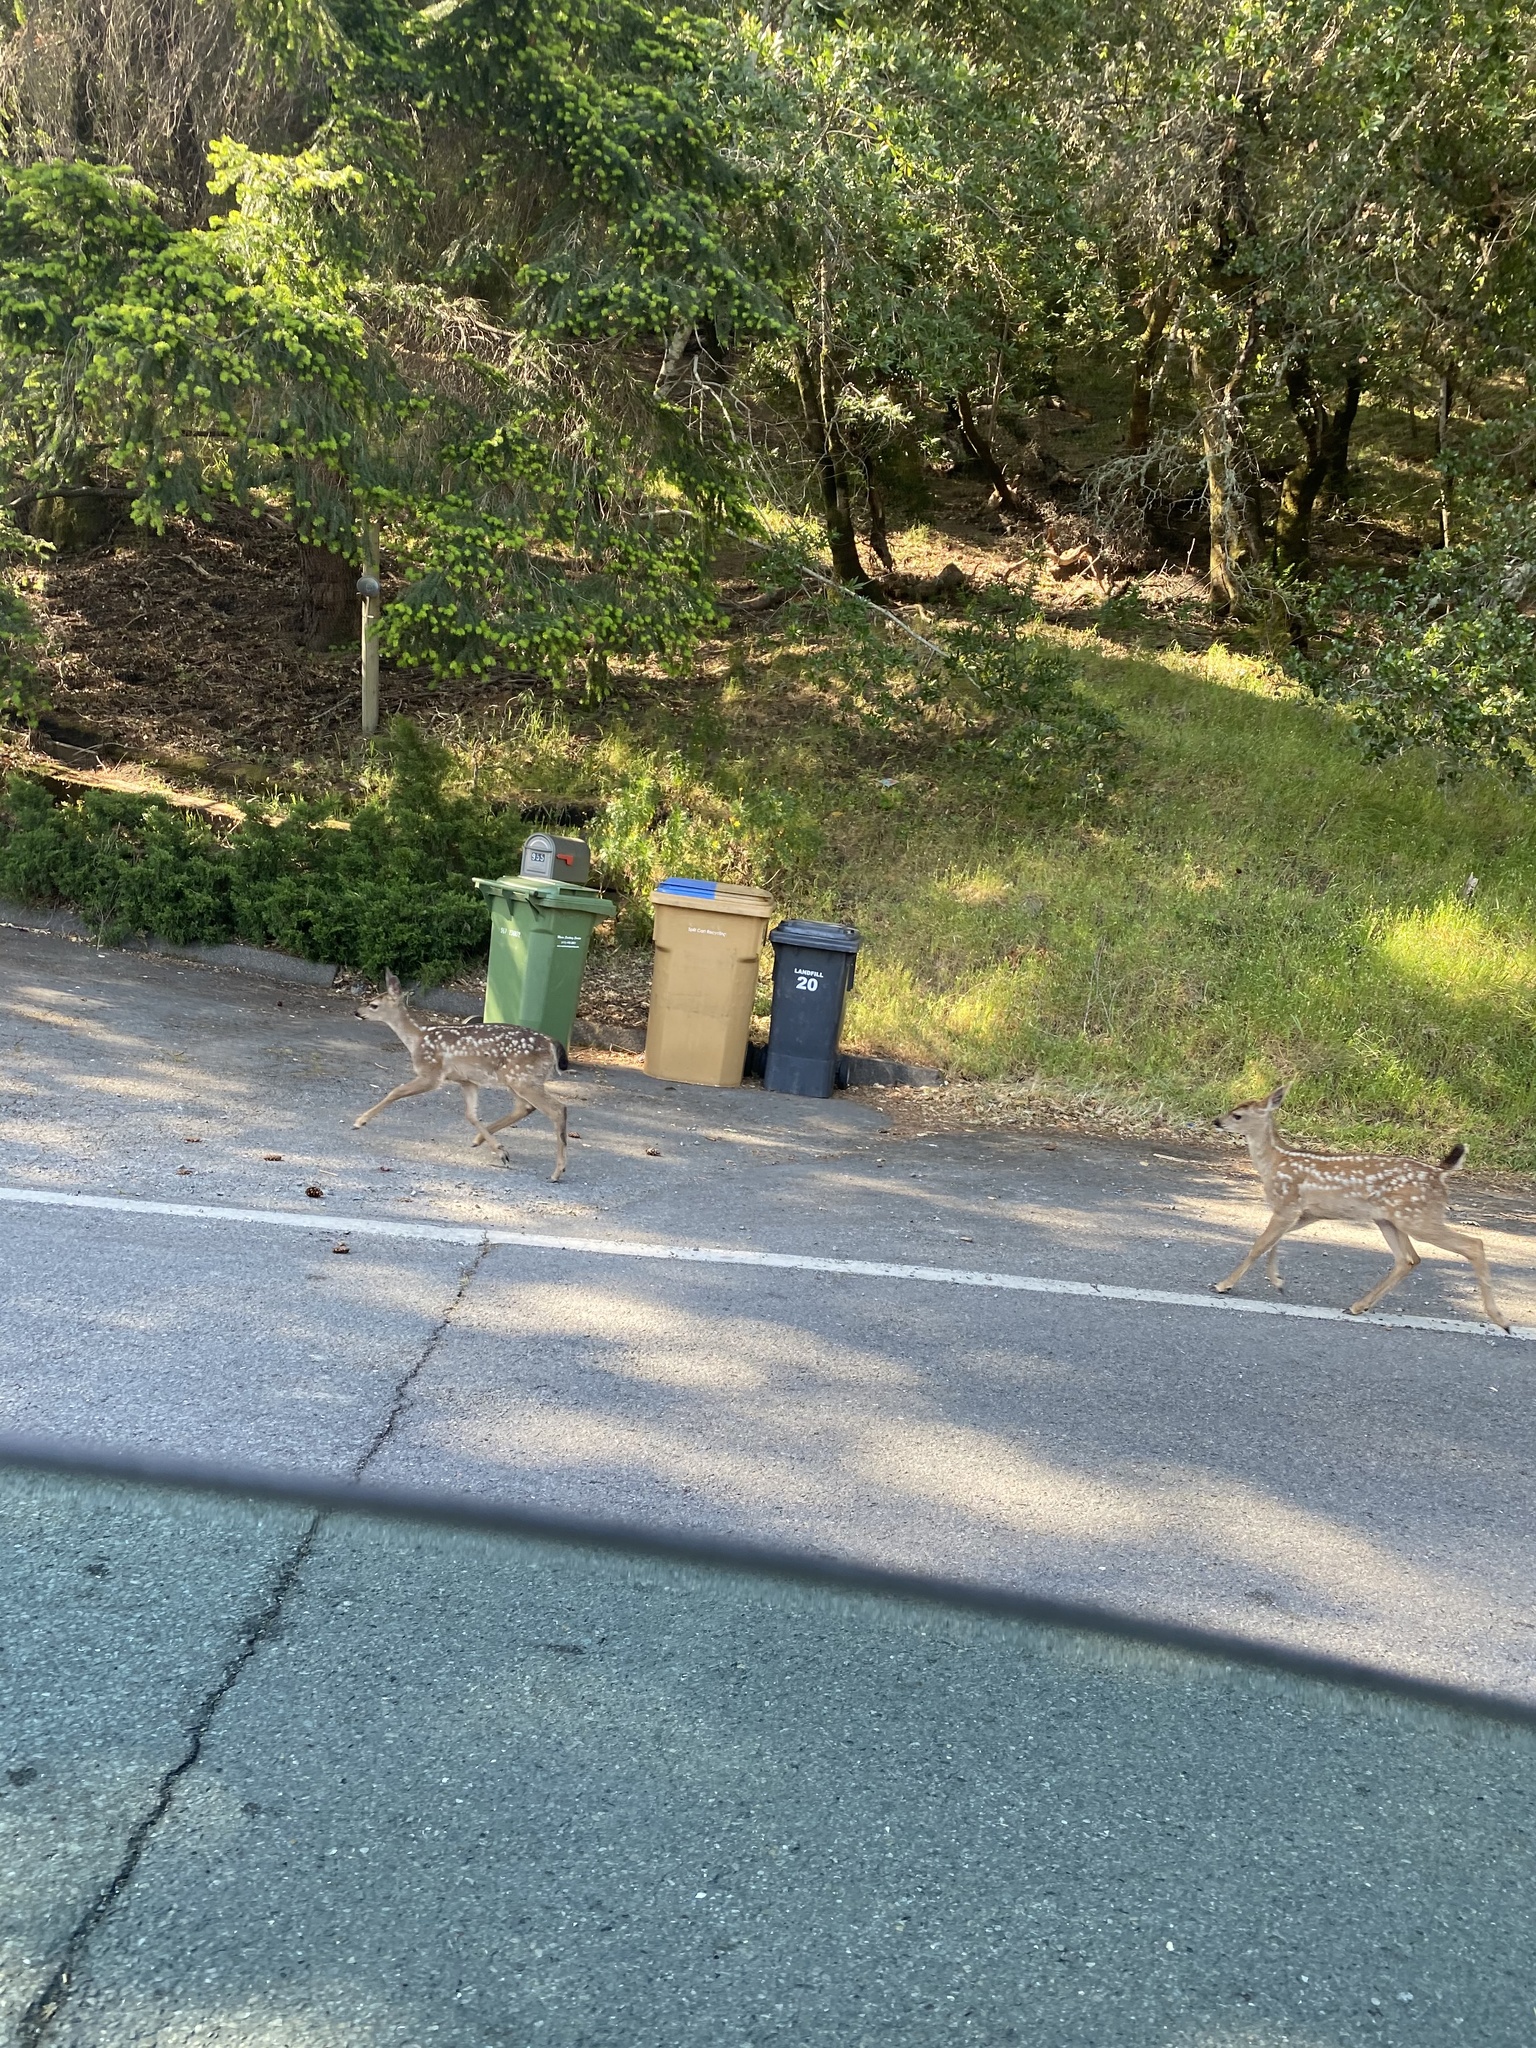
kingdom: Animalia
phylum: Chordata
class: Mammalia
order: Artiodactyla
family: Cervidae
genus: Odocoileus
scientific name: Odocoileus hemionus
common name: Mule deer
